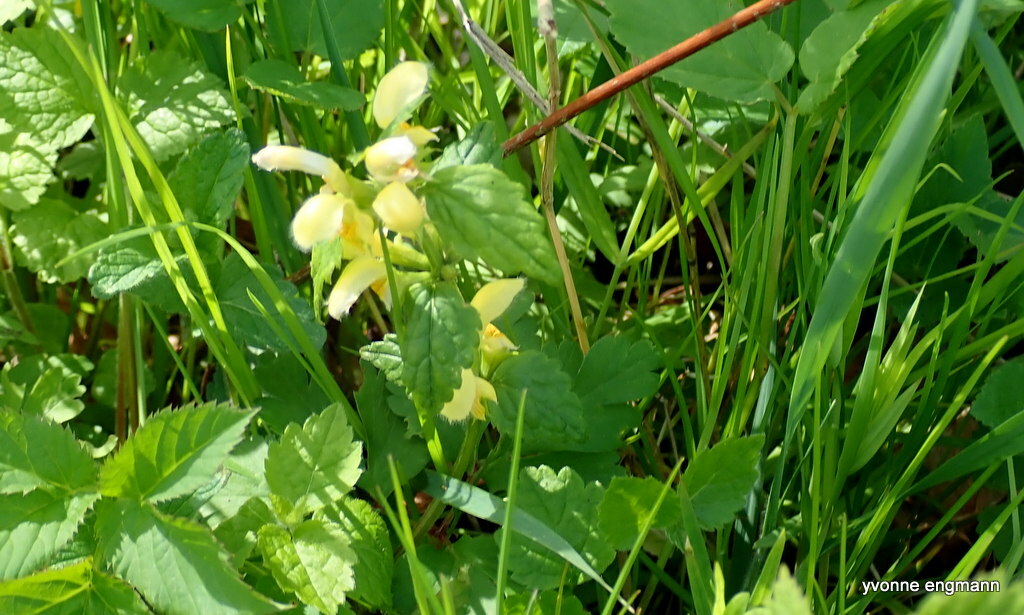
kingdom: Plantae
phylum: Tracheophyta
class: Magnoliopsida
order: Lamiales
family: Lamiaceae
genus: Lamium
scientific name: Lamium galeobdolon
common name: Yellow archangel
